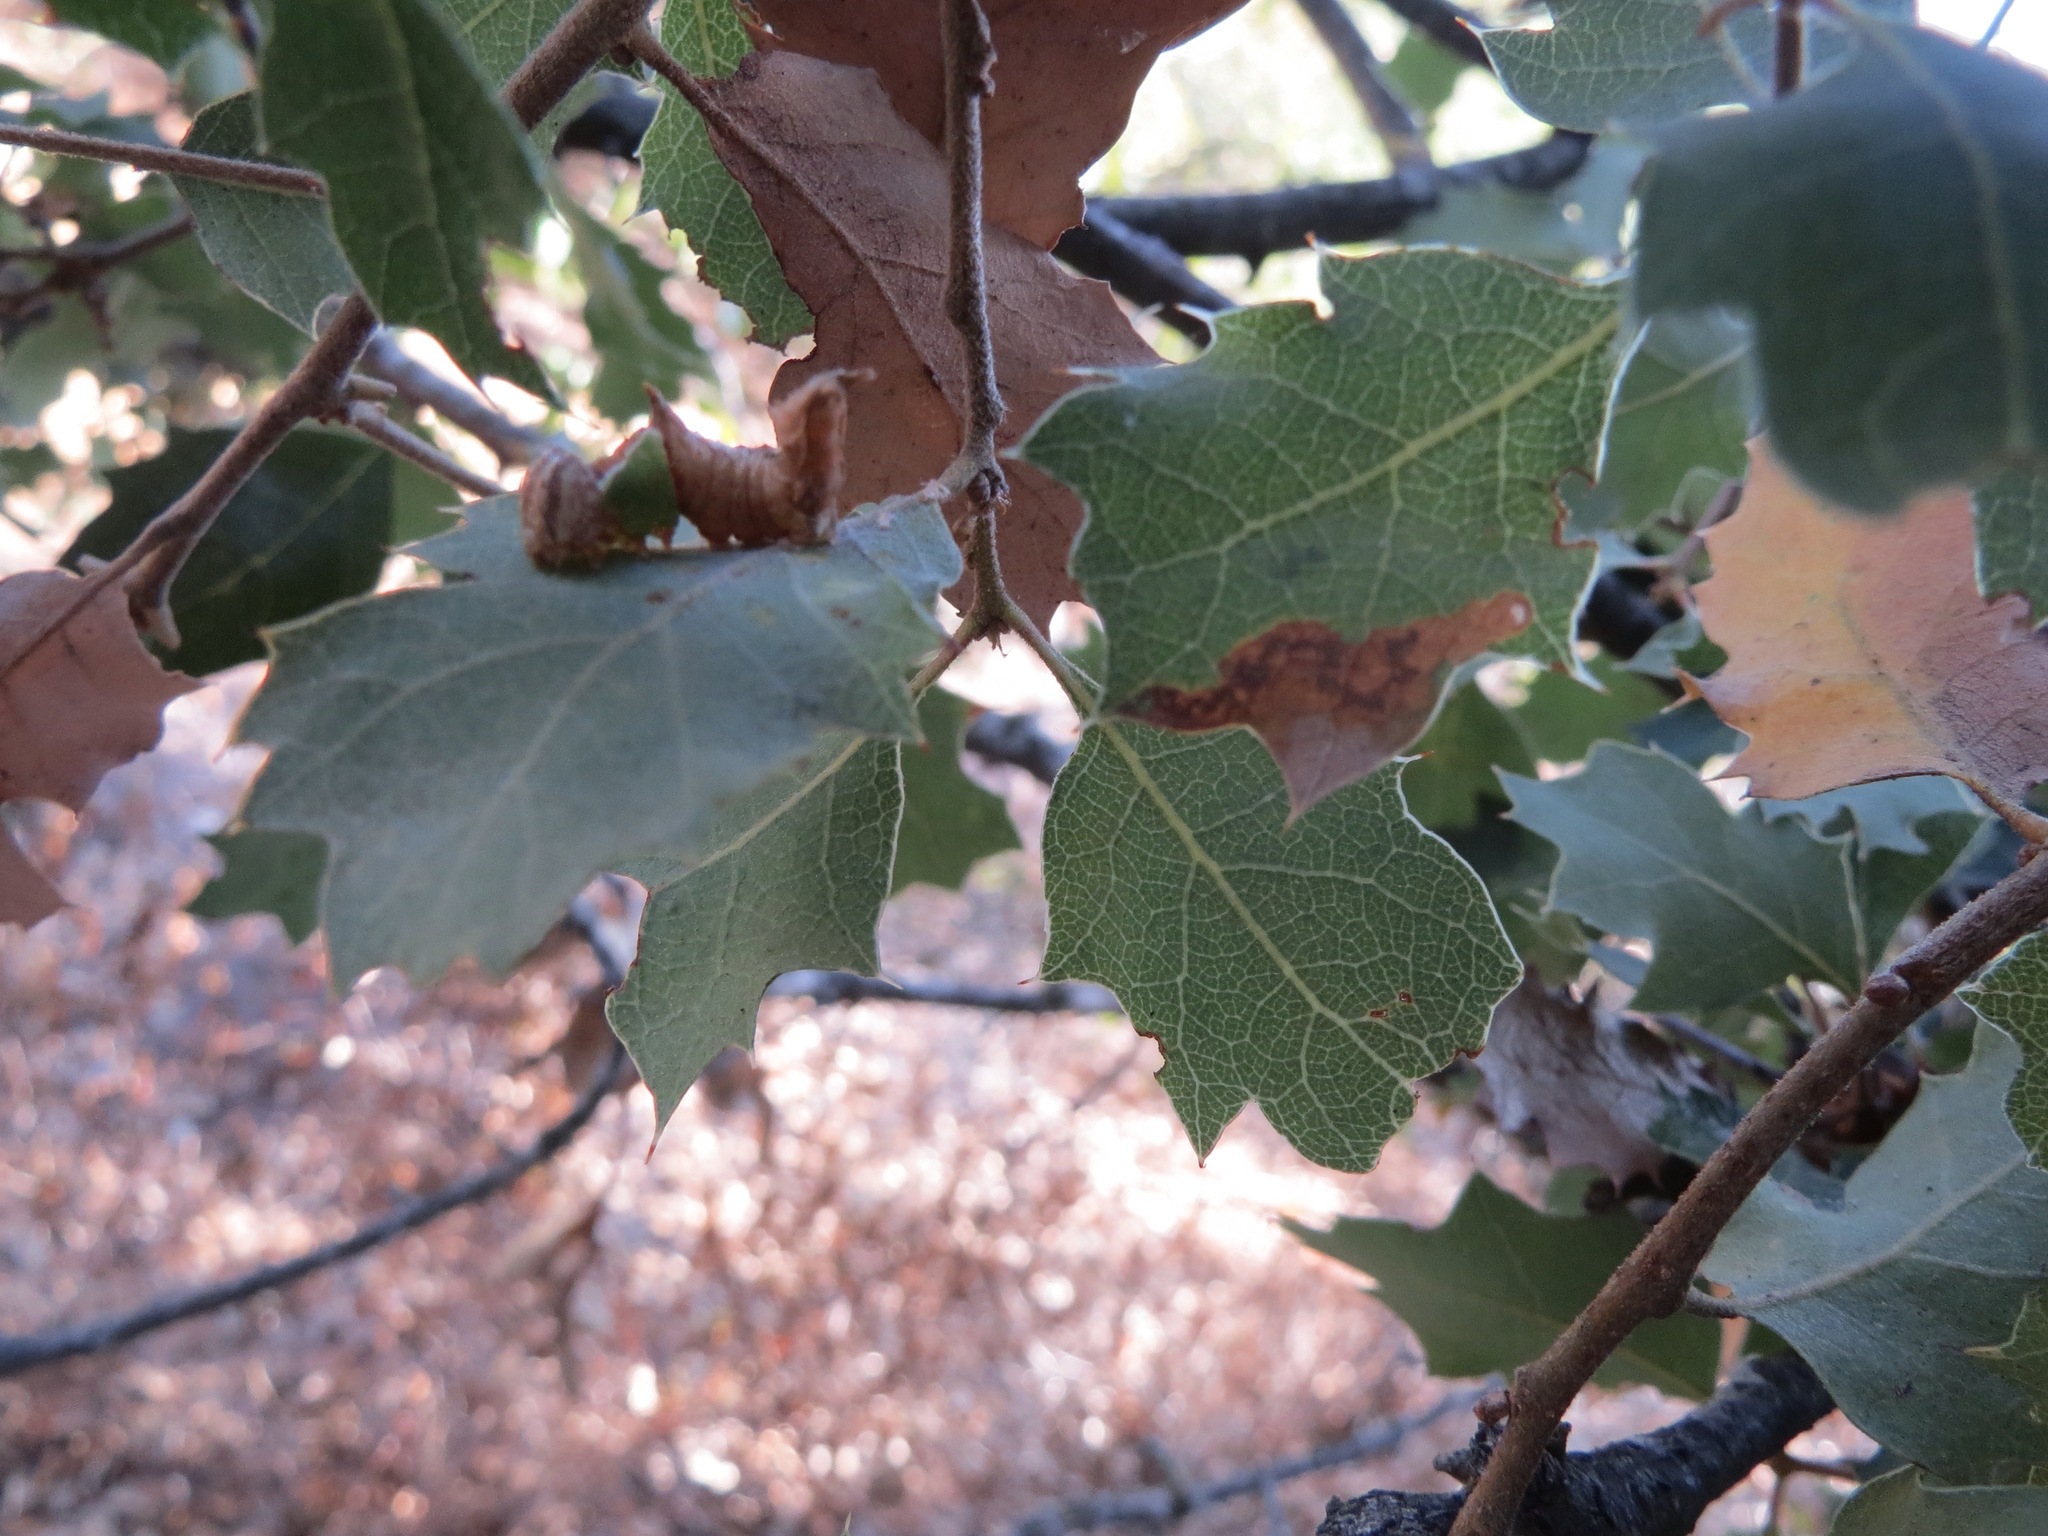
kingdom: Animalia
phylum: Arthropoda
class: Insecta
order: Lepidoptera
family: Notodontidae
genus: Schizura
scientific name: Schizura
